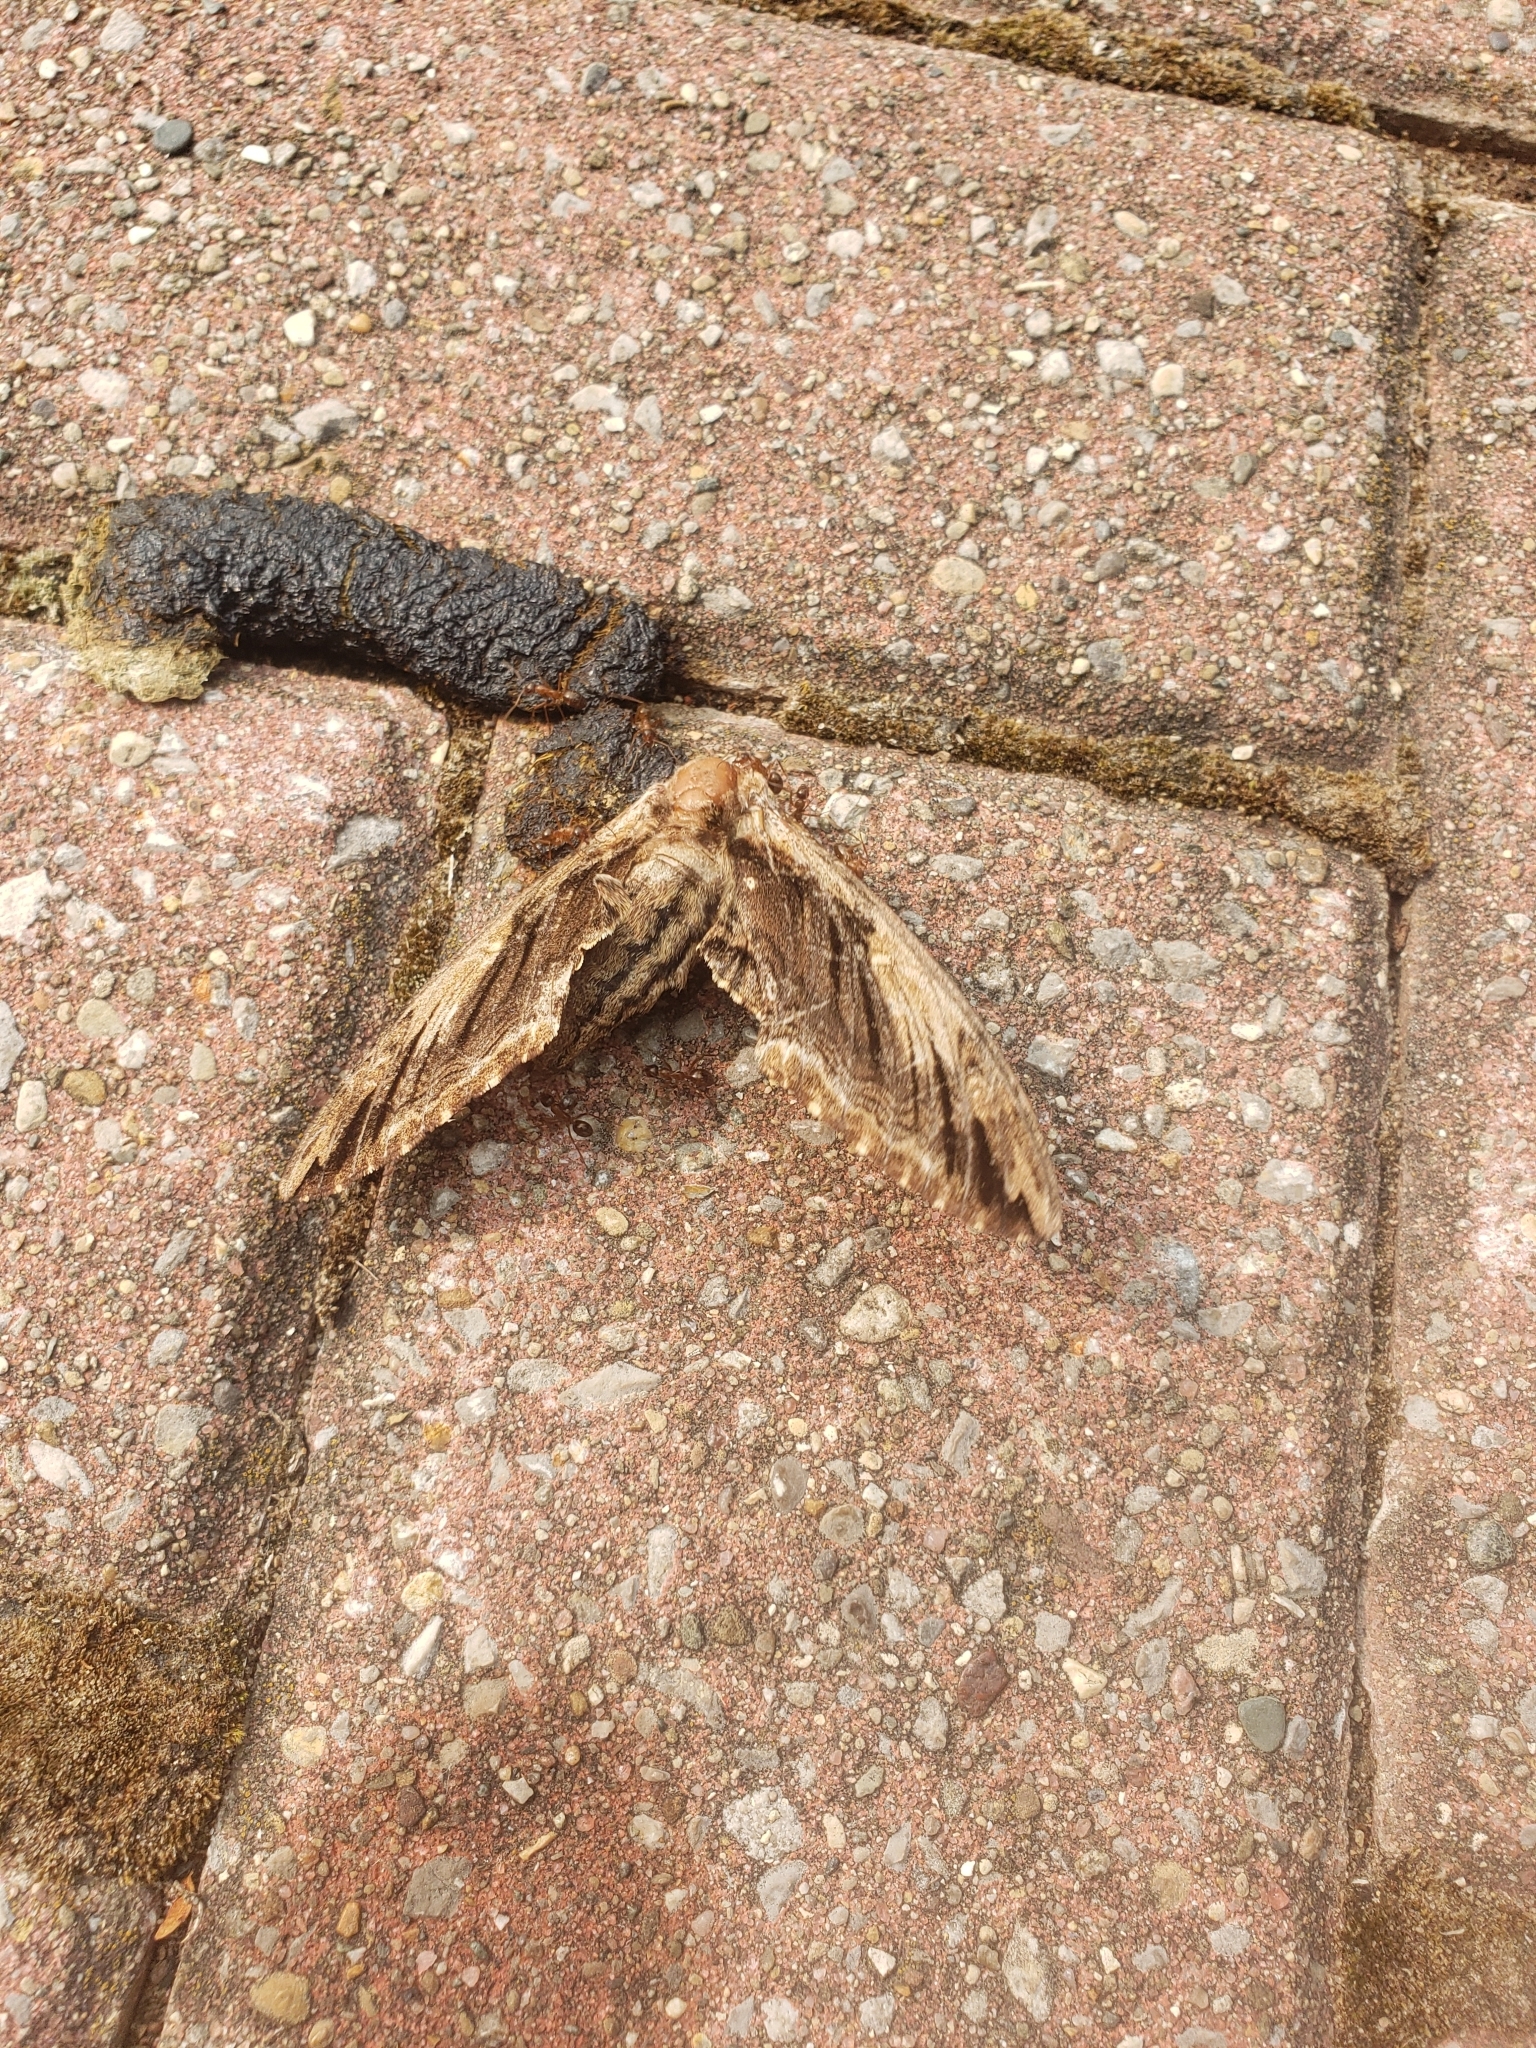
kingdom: Animalia
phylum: Arthropoda
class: Insecta
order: Lepidoptera
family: Sphingidae
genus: Ceratomia
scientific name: Ceratomia amyntor
